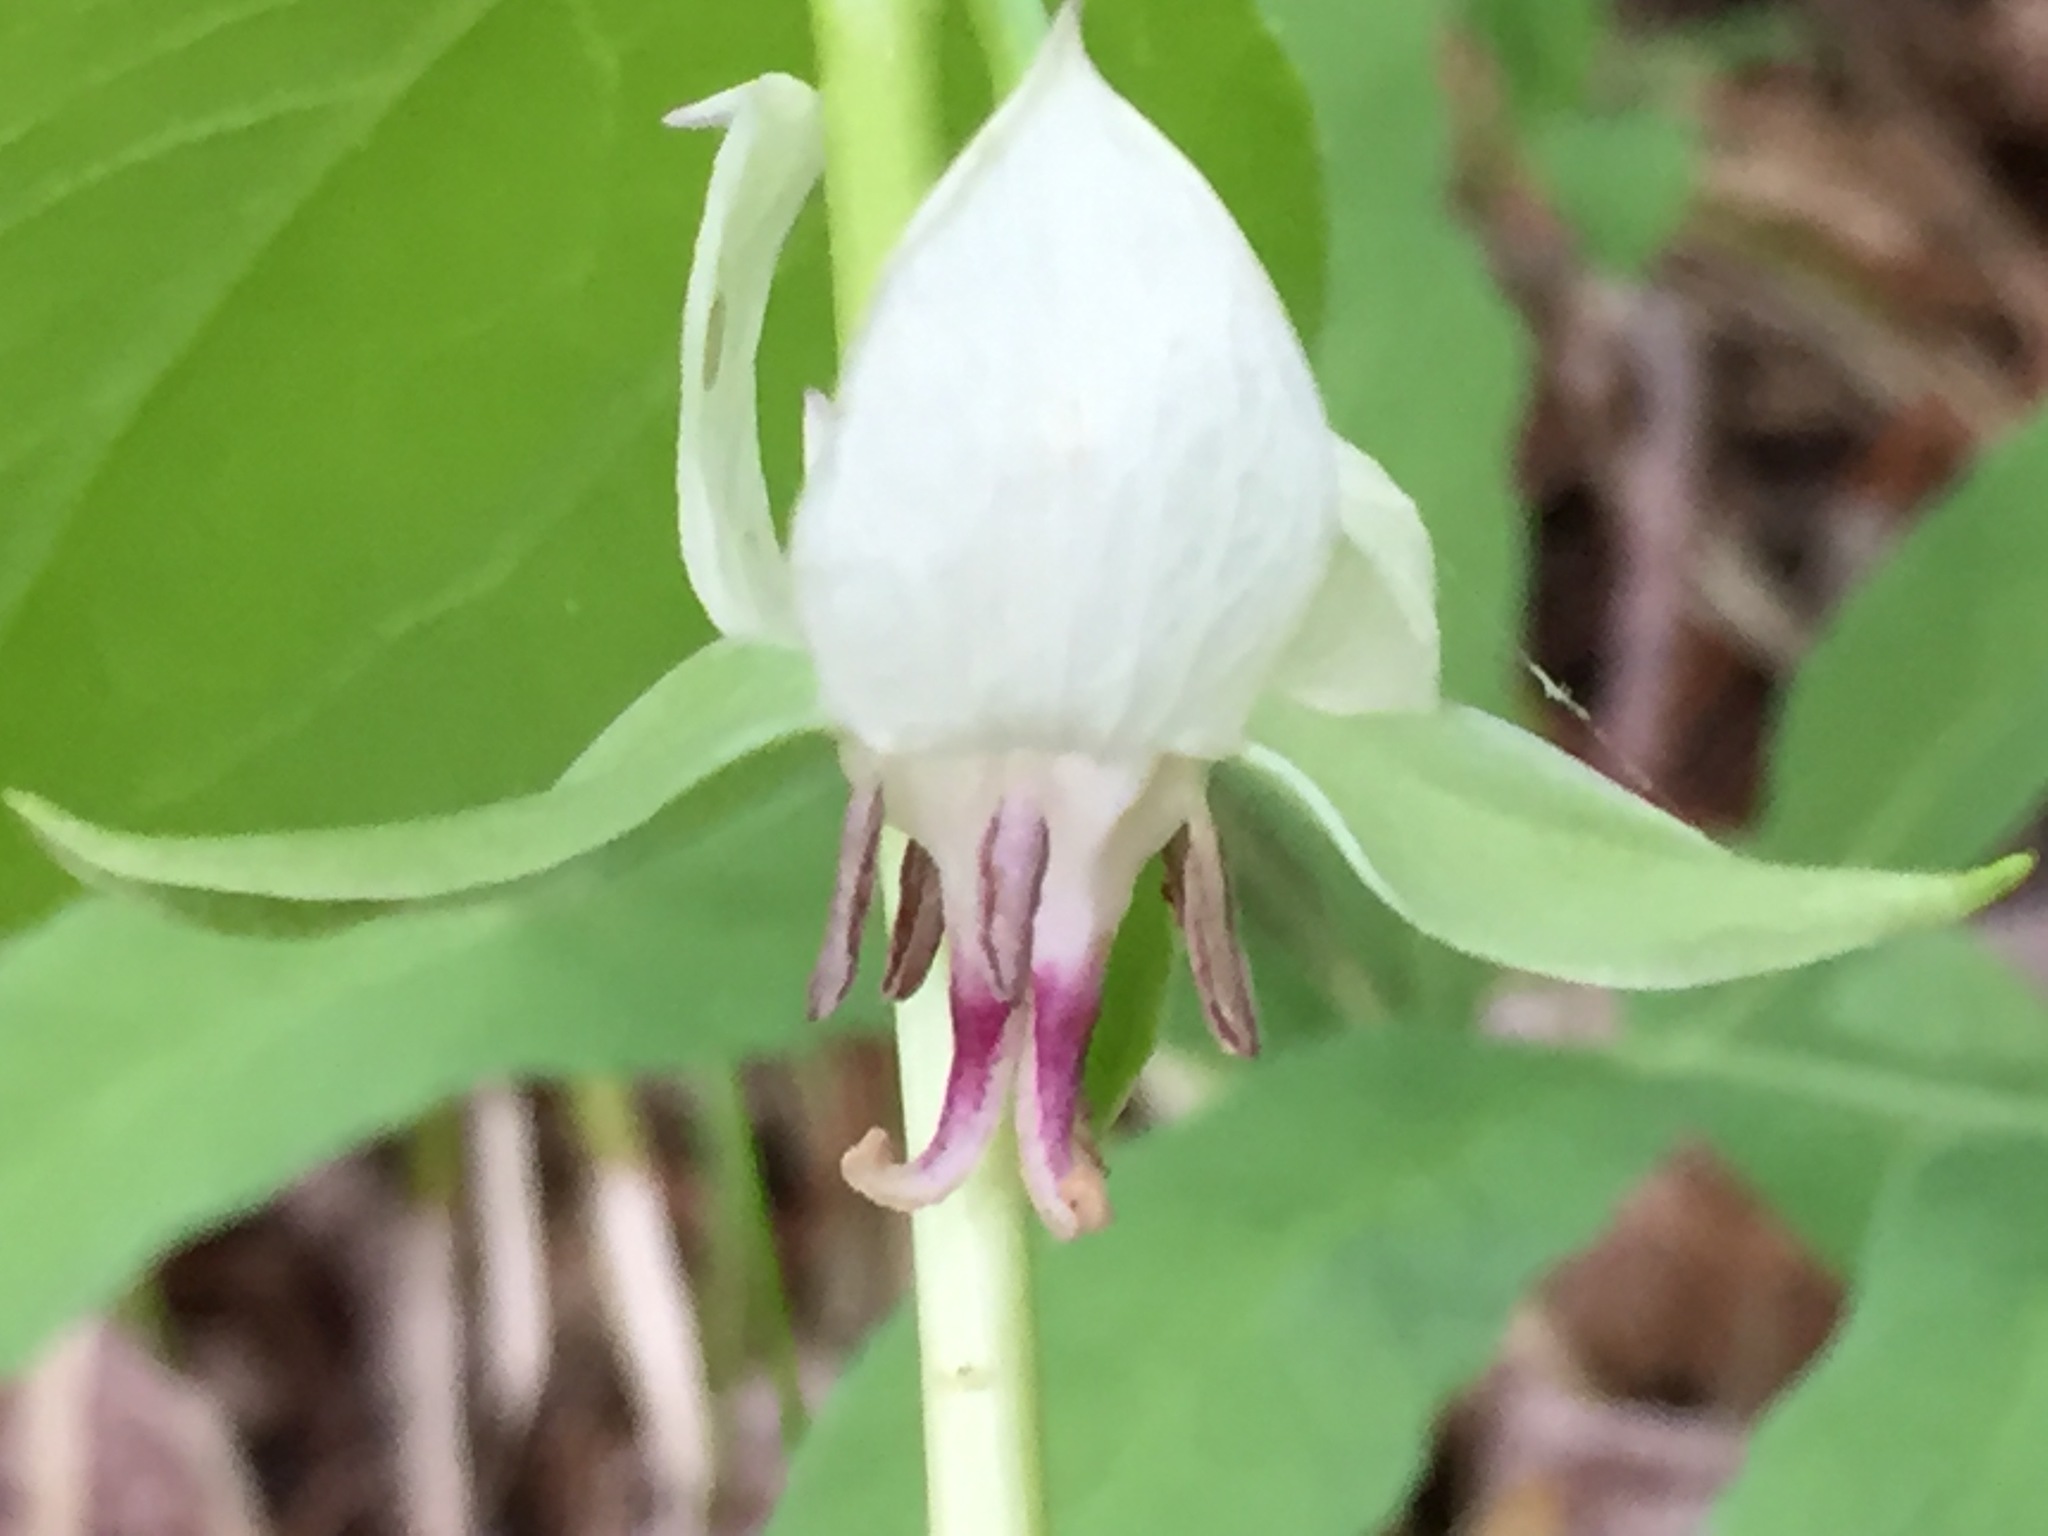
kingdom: Plantae
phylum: Tracheophyta
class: Liliopsida
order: Liliales
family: Melanthiaceae
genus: Trillium
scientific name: Trillium cernuum
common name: Nodding trillium
